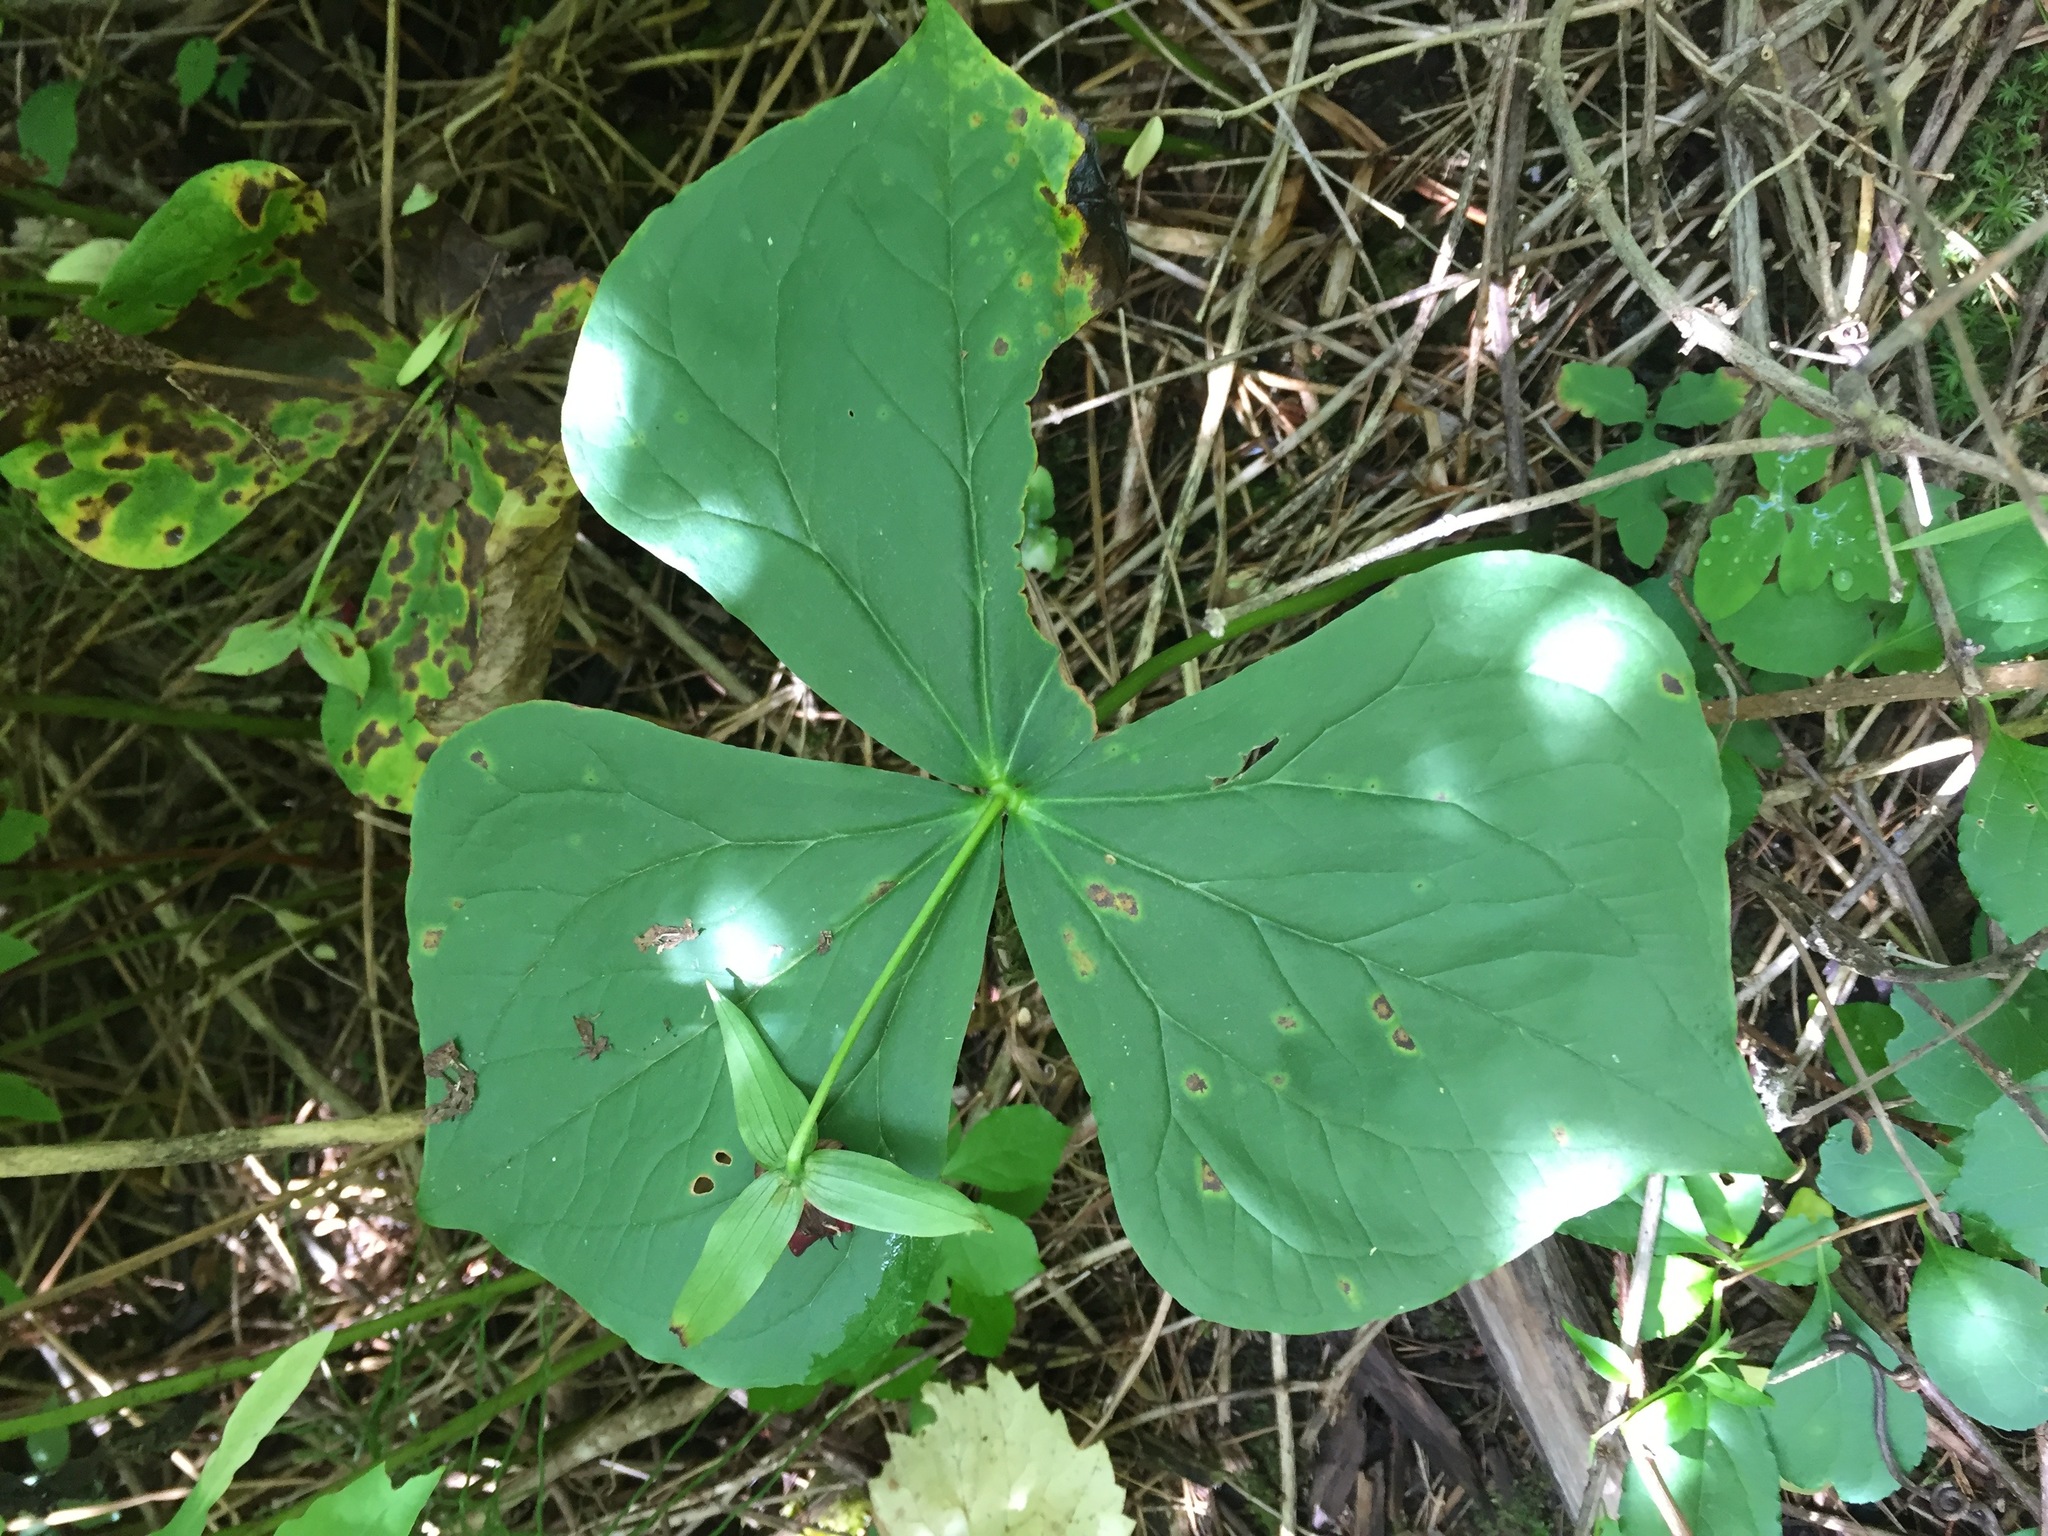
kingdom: Plantae
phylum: Tracheophyta
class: Liliopsida
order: Liliales
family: Melanthiaceae
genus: Trillium
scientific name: Trillium erectum
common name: Purple trillium
